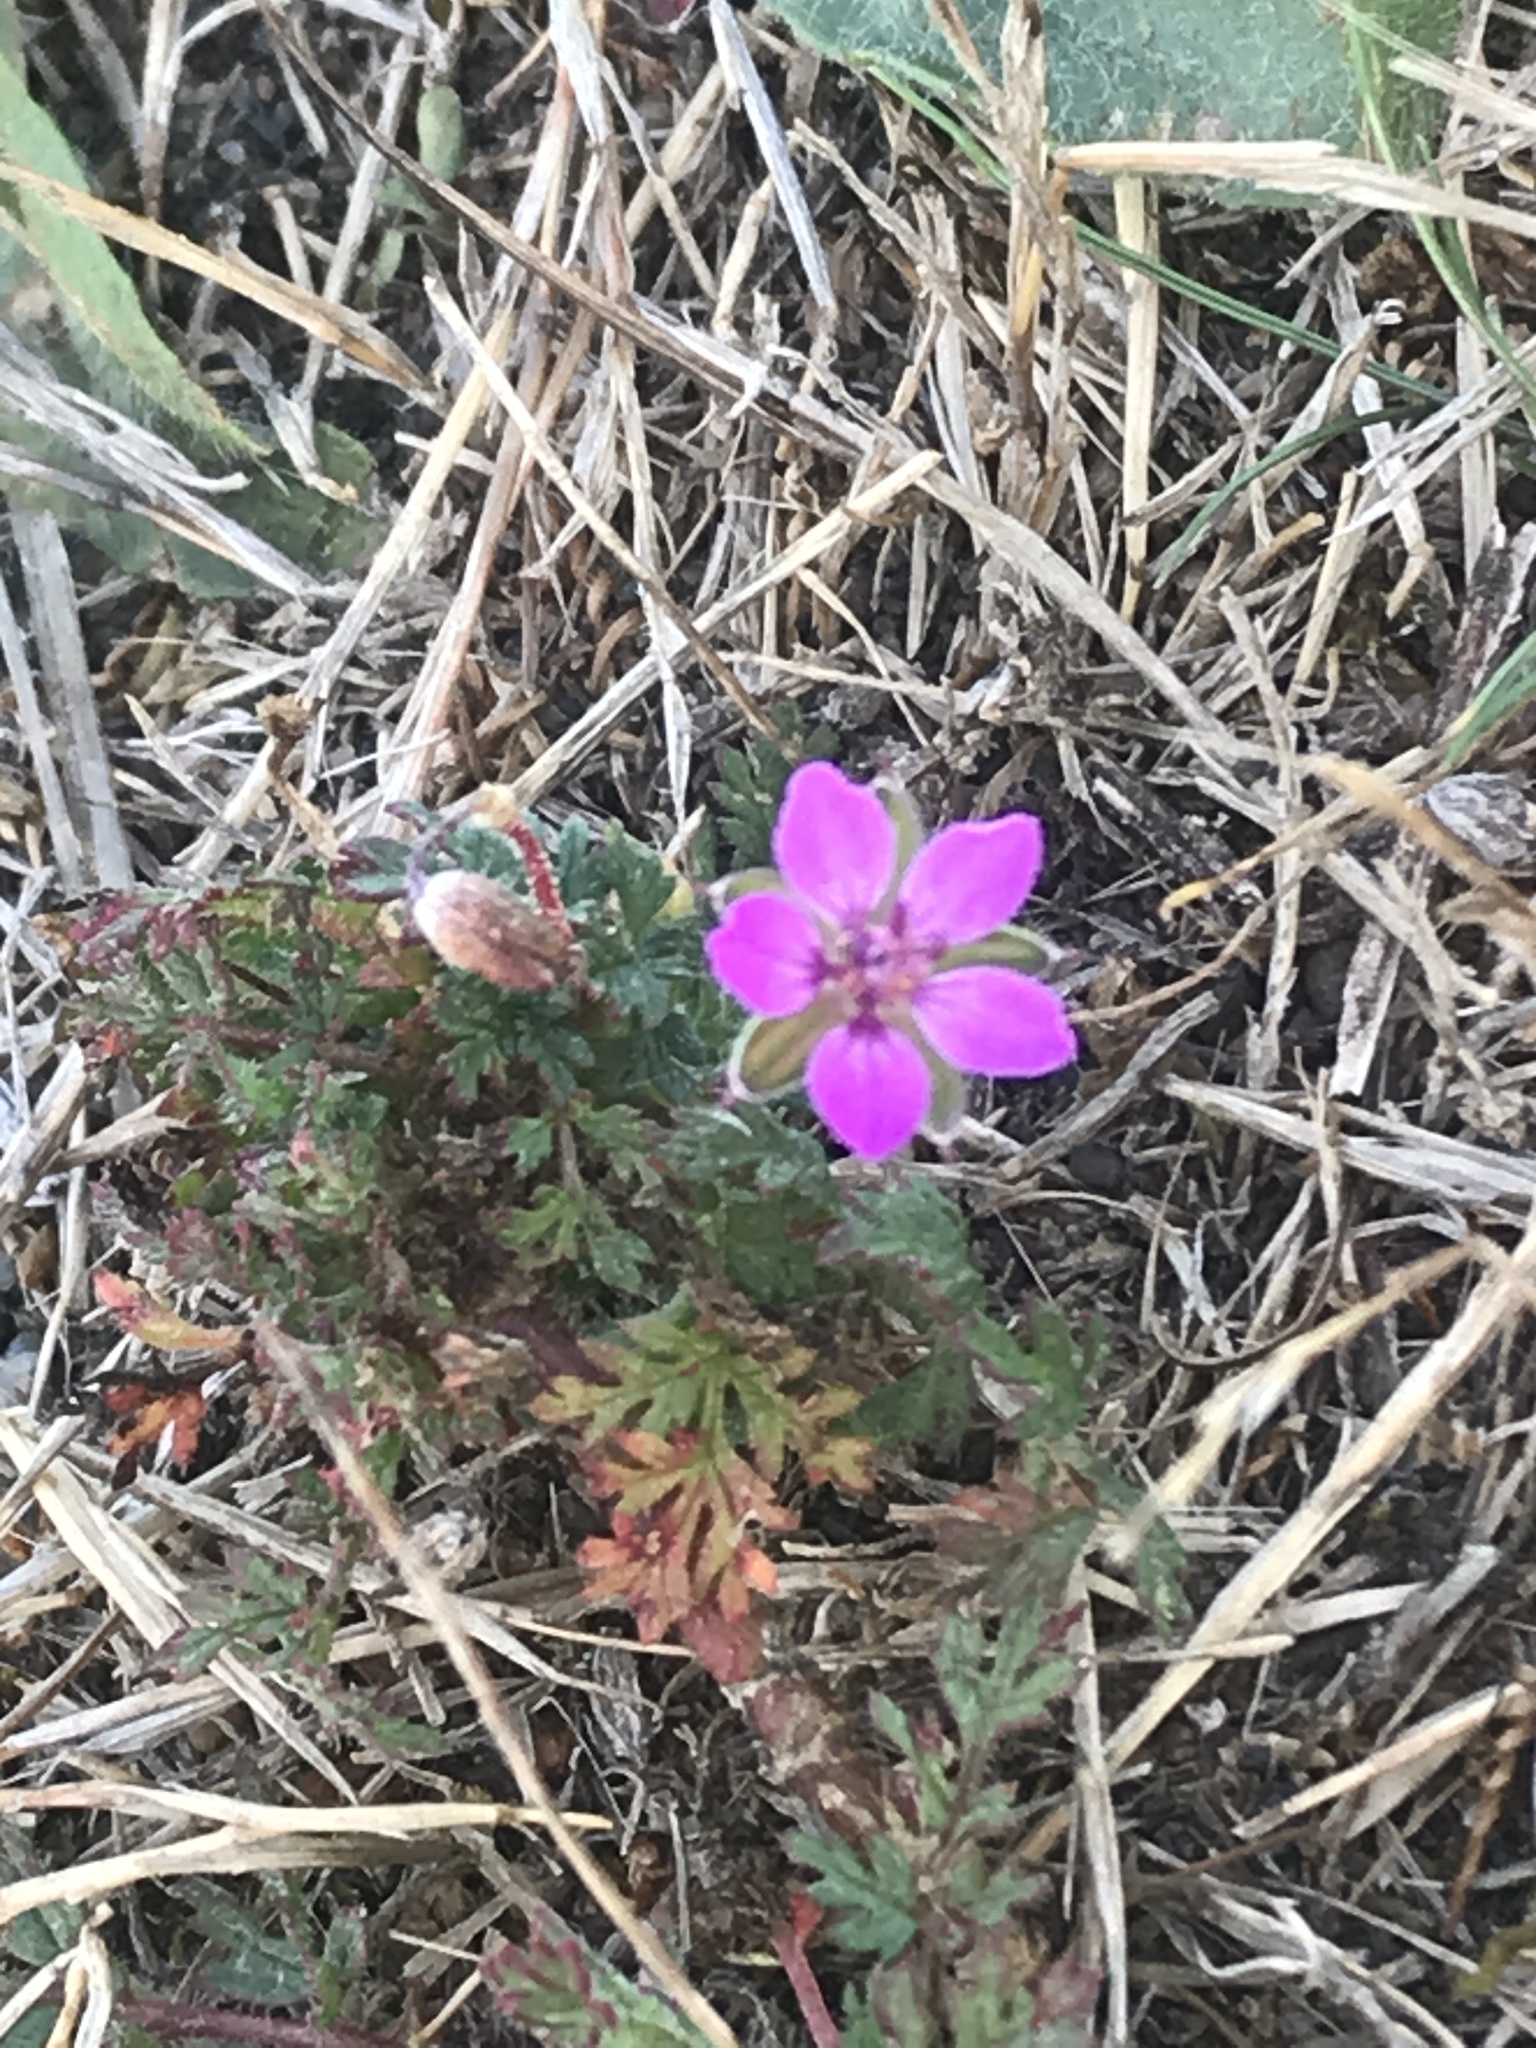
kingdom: Plantae
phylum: Tracheophyta
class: Magnoliopsida
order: Geraniales
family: Geraniaceae
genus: Erodium
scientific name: Erodium cicutarium
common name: Common stork's-bill
